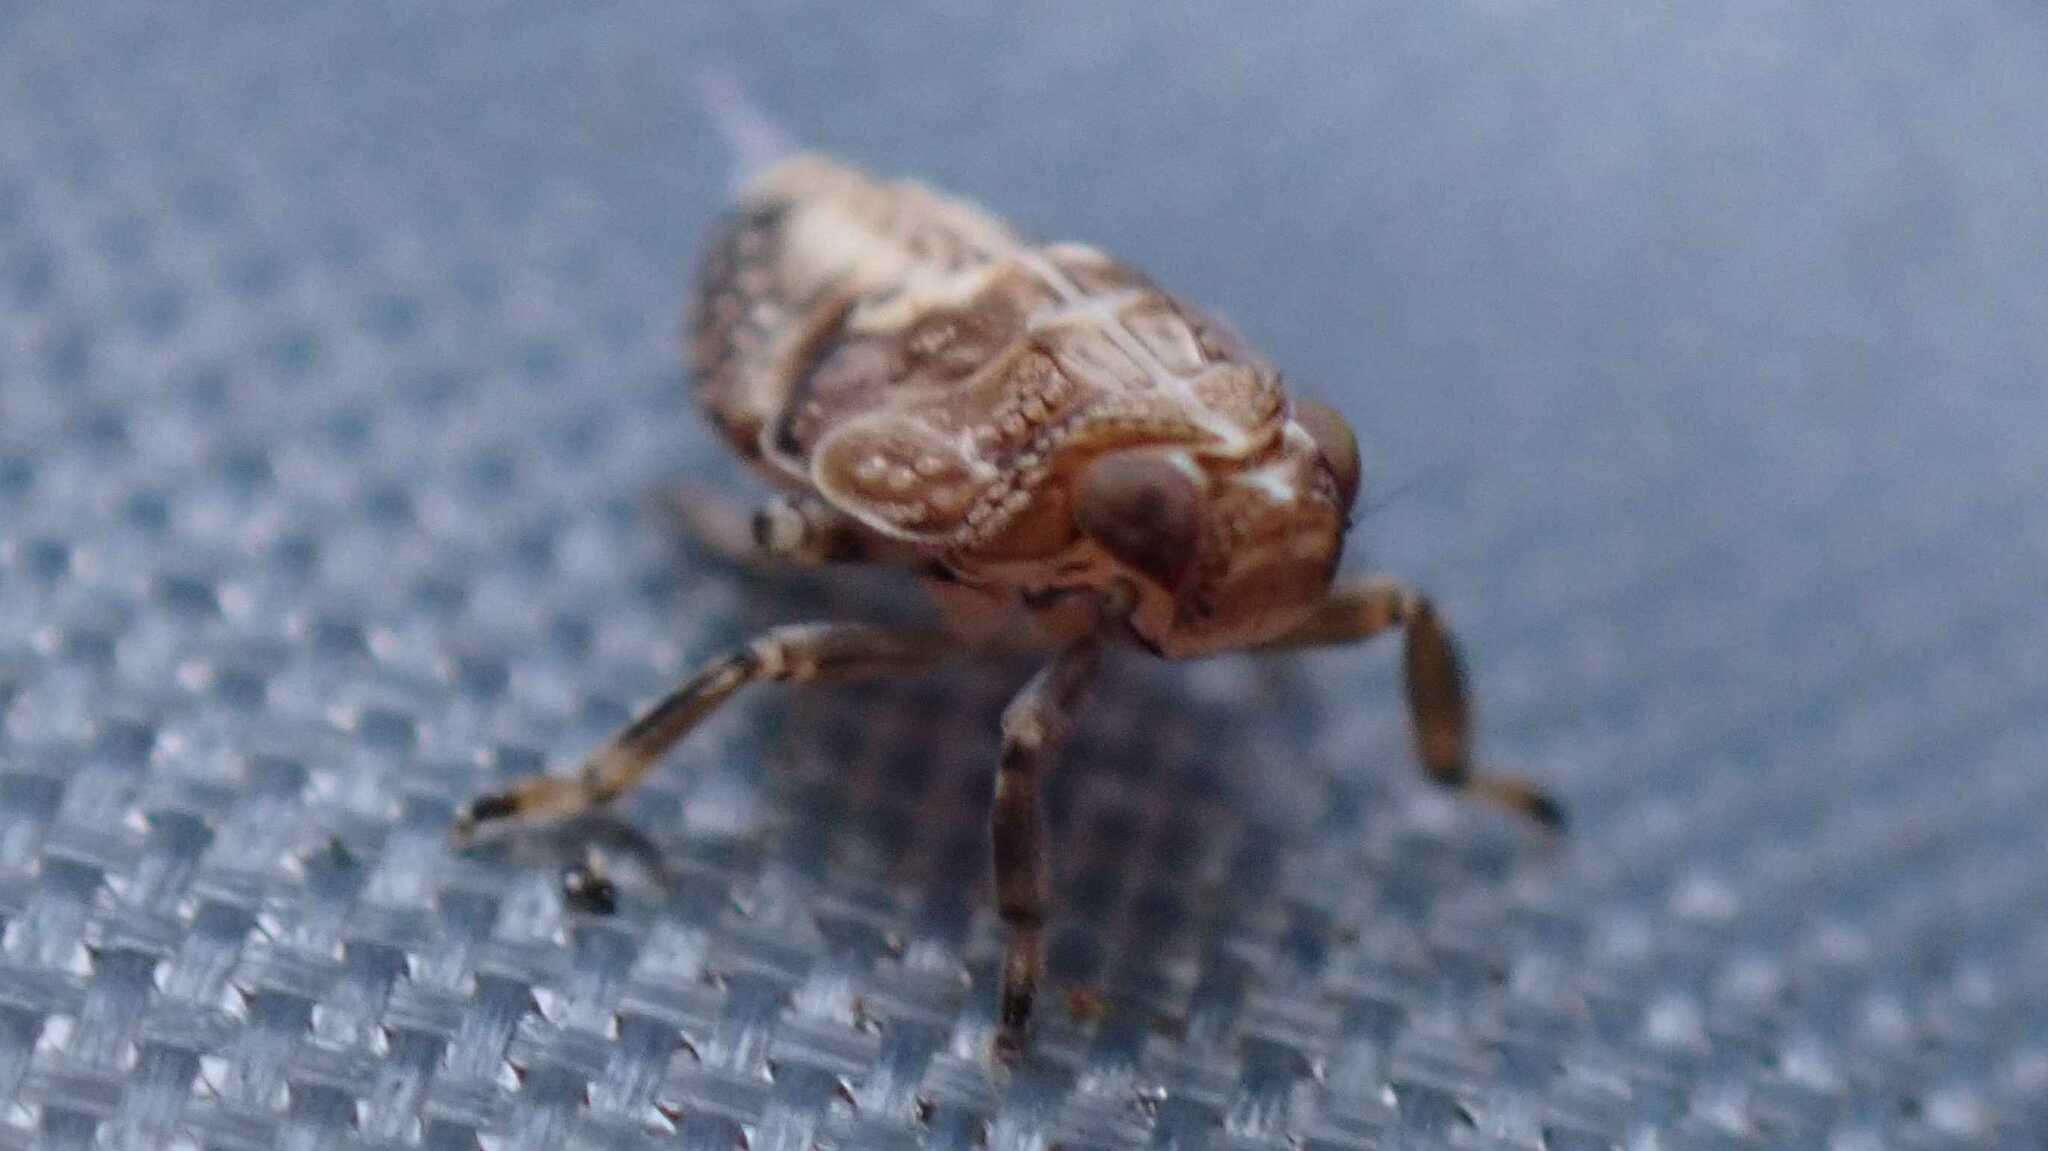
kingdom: Animalia
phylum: Arthropoda
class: Insecta
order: Hemiptera
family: Issidae
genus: Issus
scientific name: Issus coleoptratus
